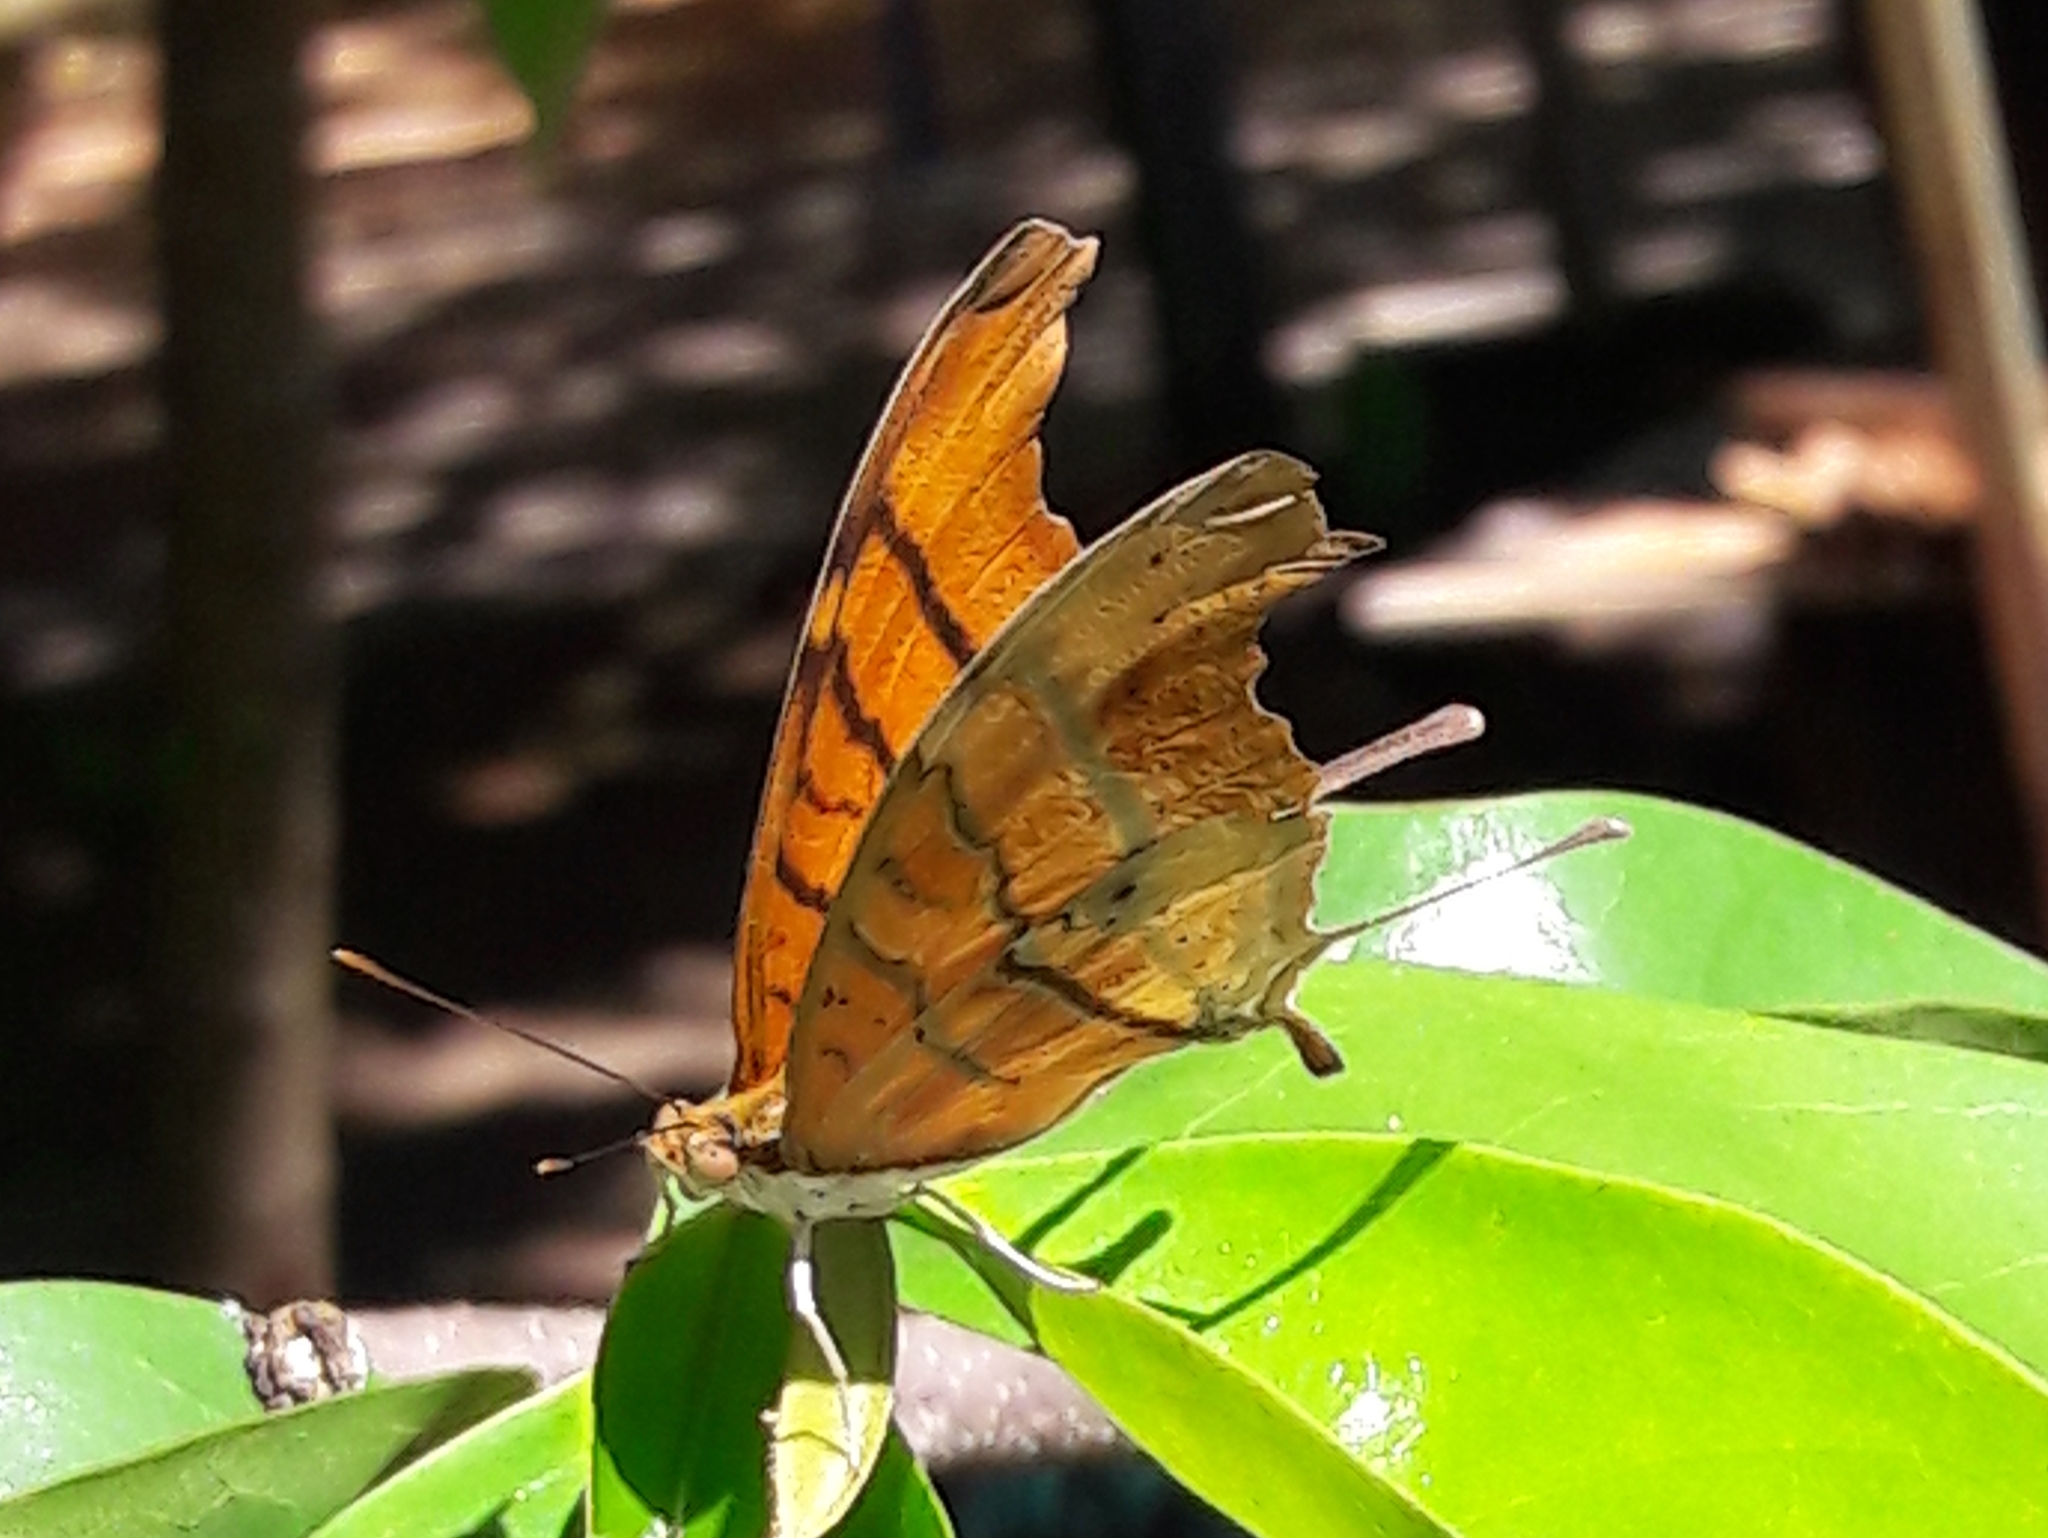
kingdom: Animalia
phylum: Arthropoda
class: Insecta
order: Lepidoptera
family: Nymphalidae
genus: Marpesia
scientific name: Marpesia petreus
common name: Red dagger wing
